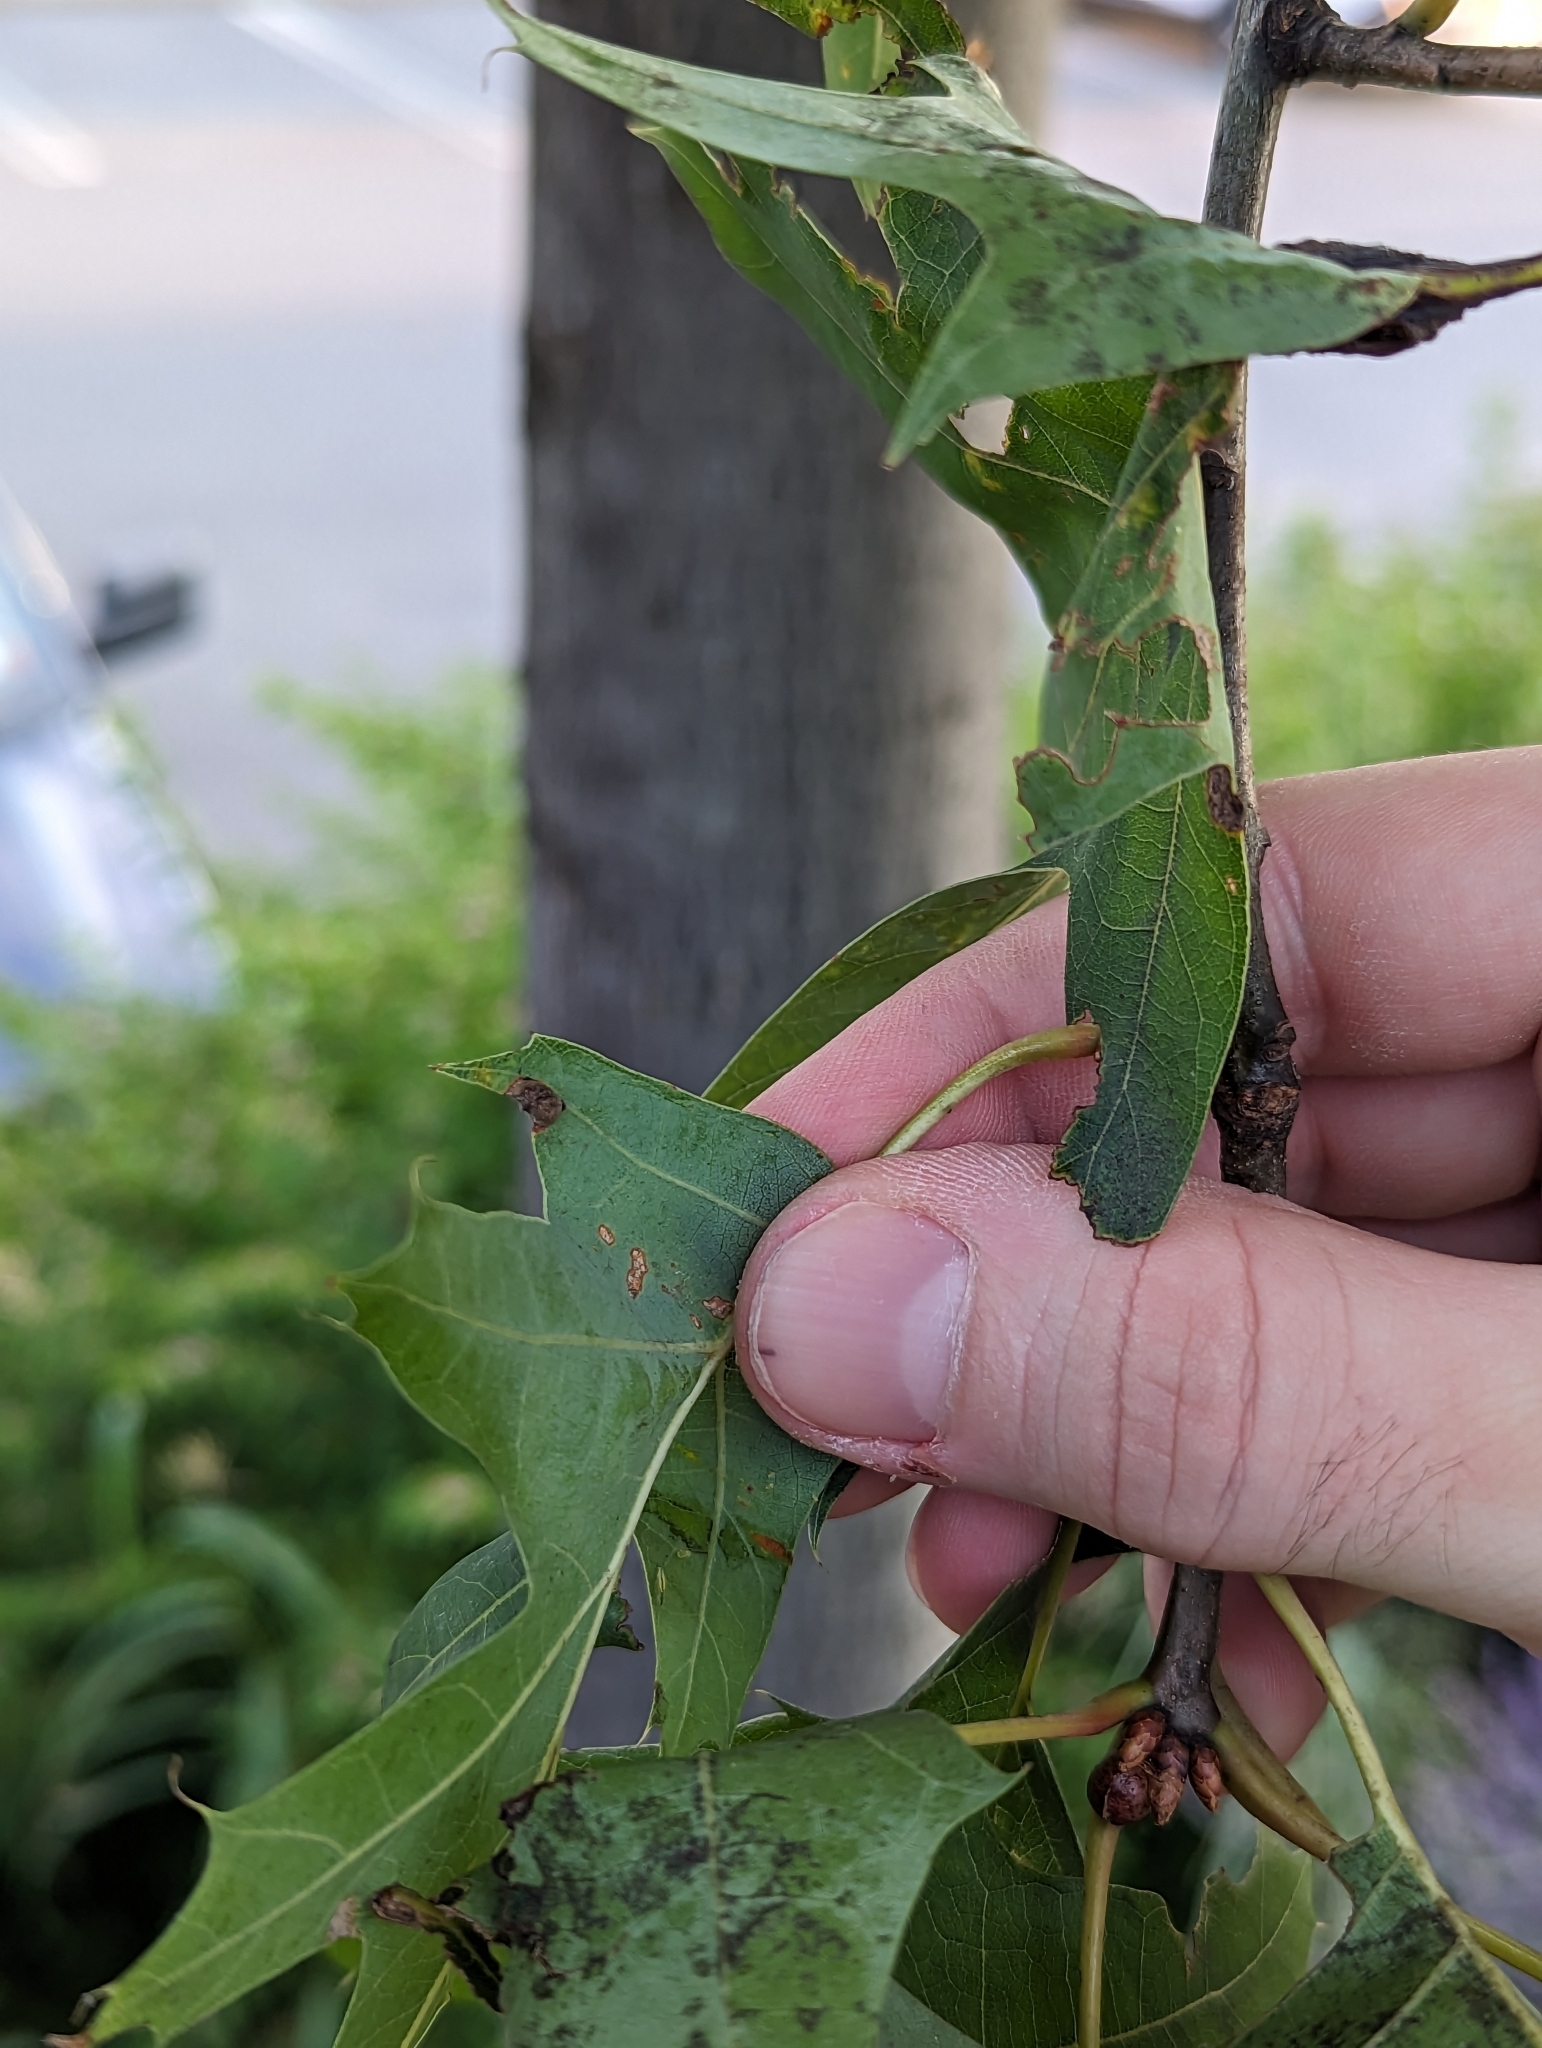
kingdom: Animalia
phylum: Arthropoda
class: Insecta
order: Hymenoptera
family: Cynipidae
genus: Dryocosmus
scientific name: Dryocosmus
